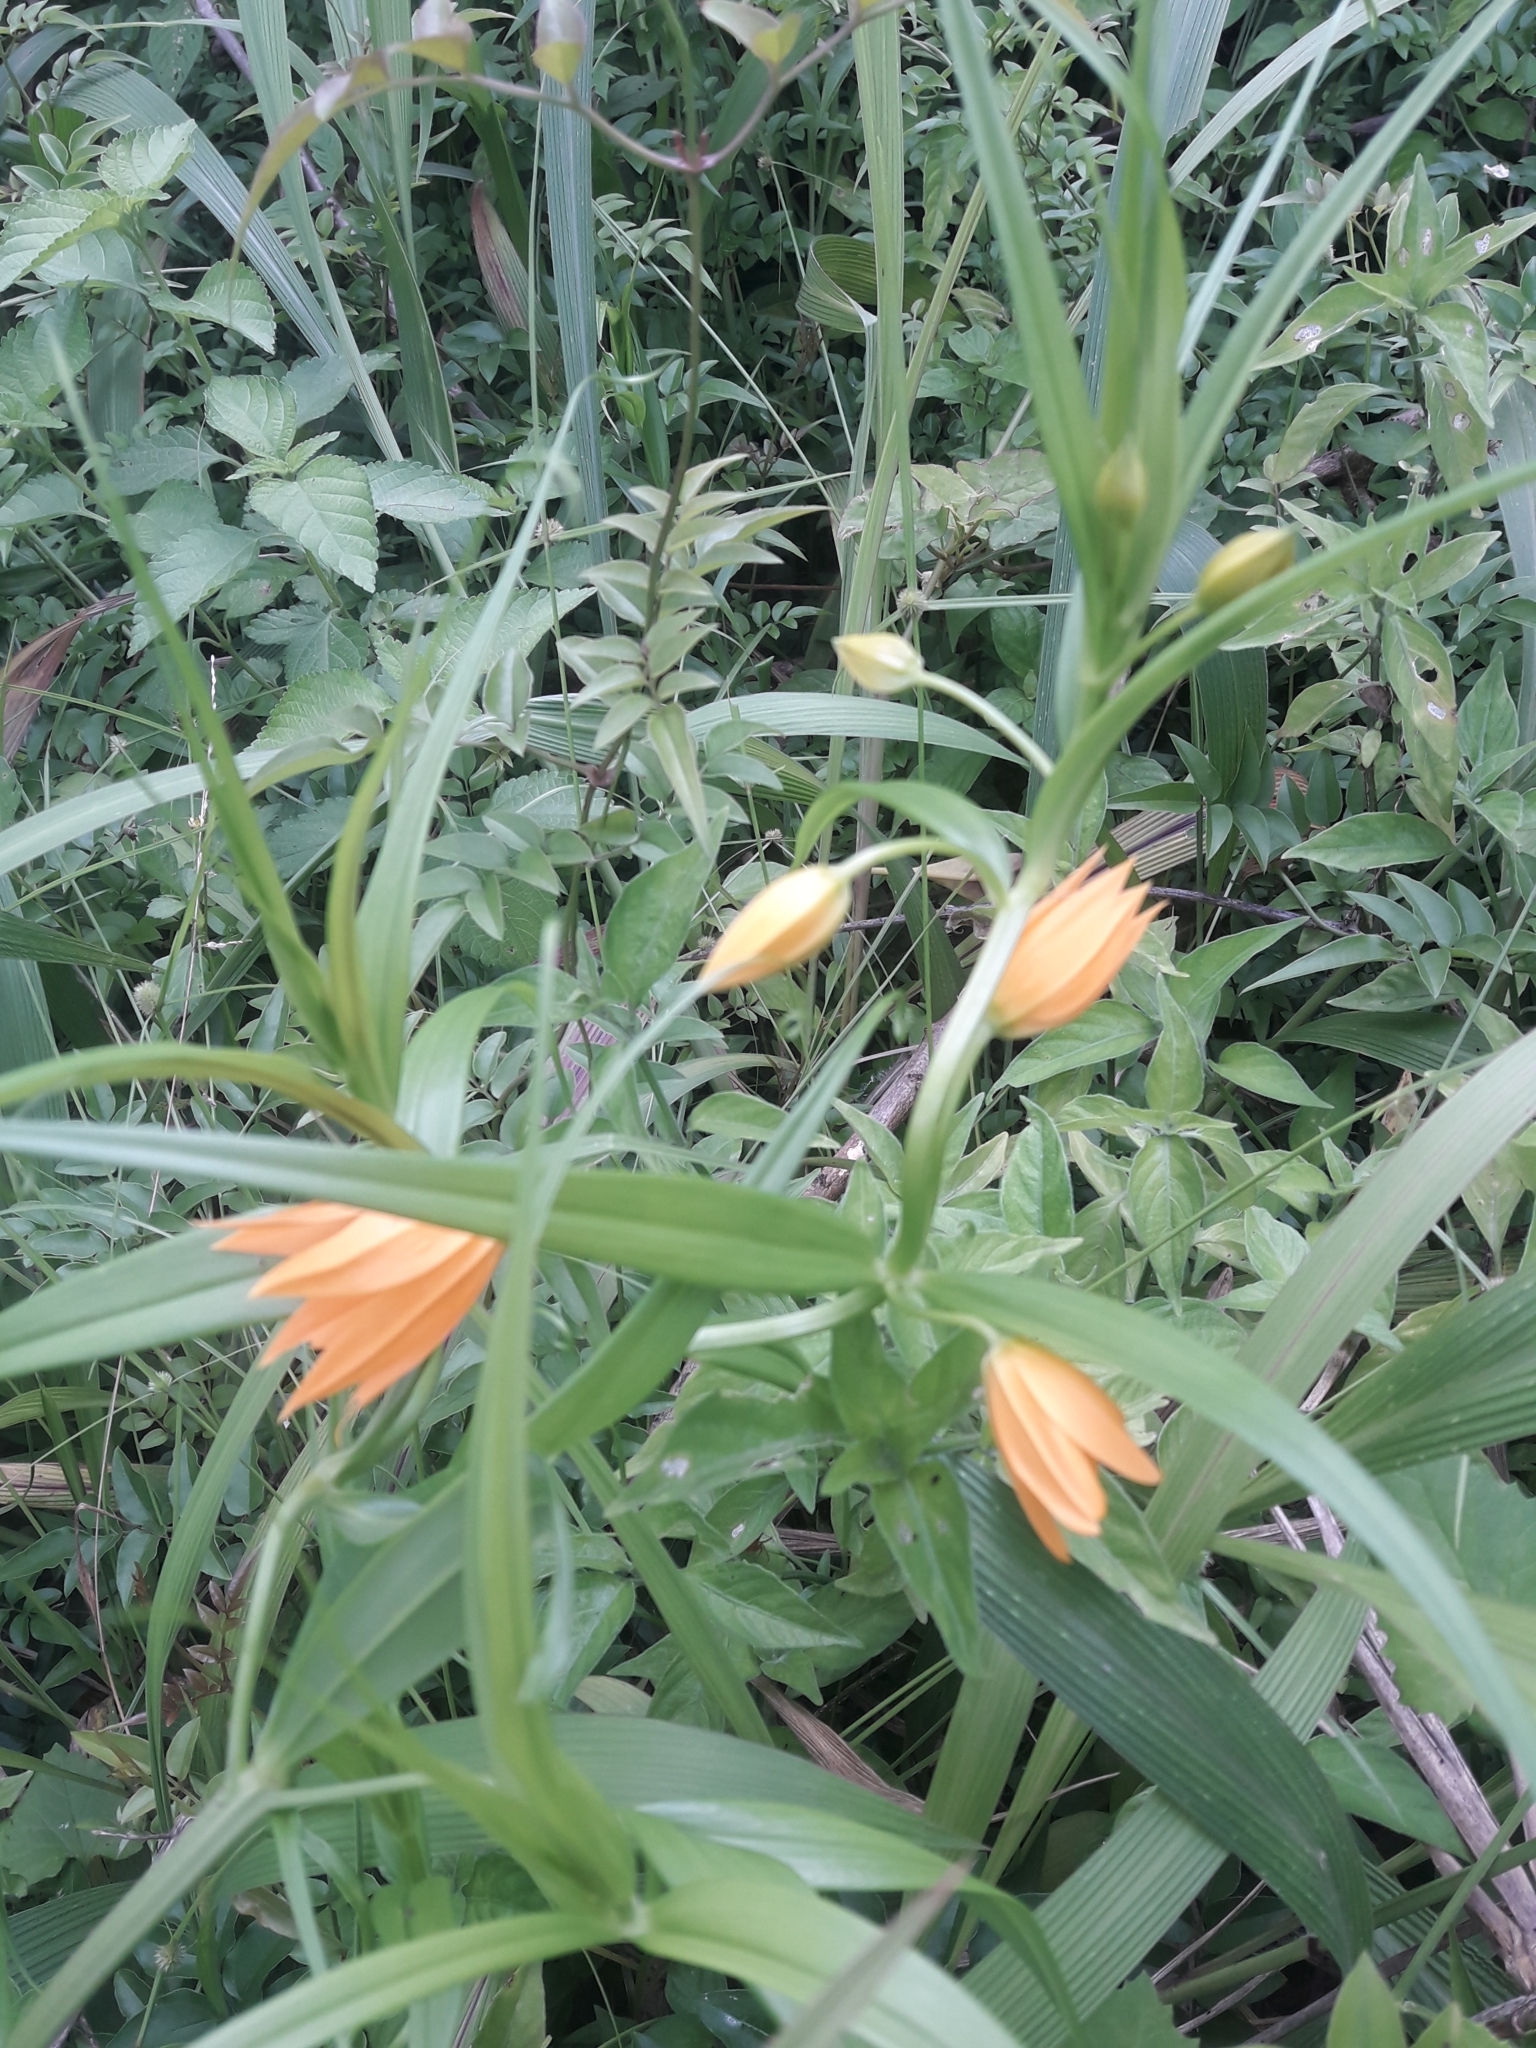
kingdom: Plantae
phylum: Tracheophyta
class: Liliopsida
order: Liliales
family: Colchicaceae
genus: Gloriosa
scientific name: Gloriosa modesta
